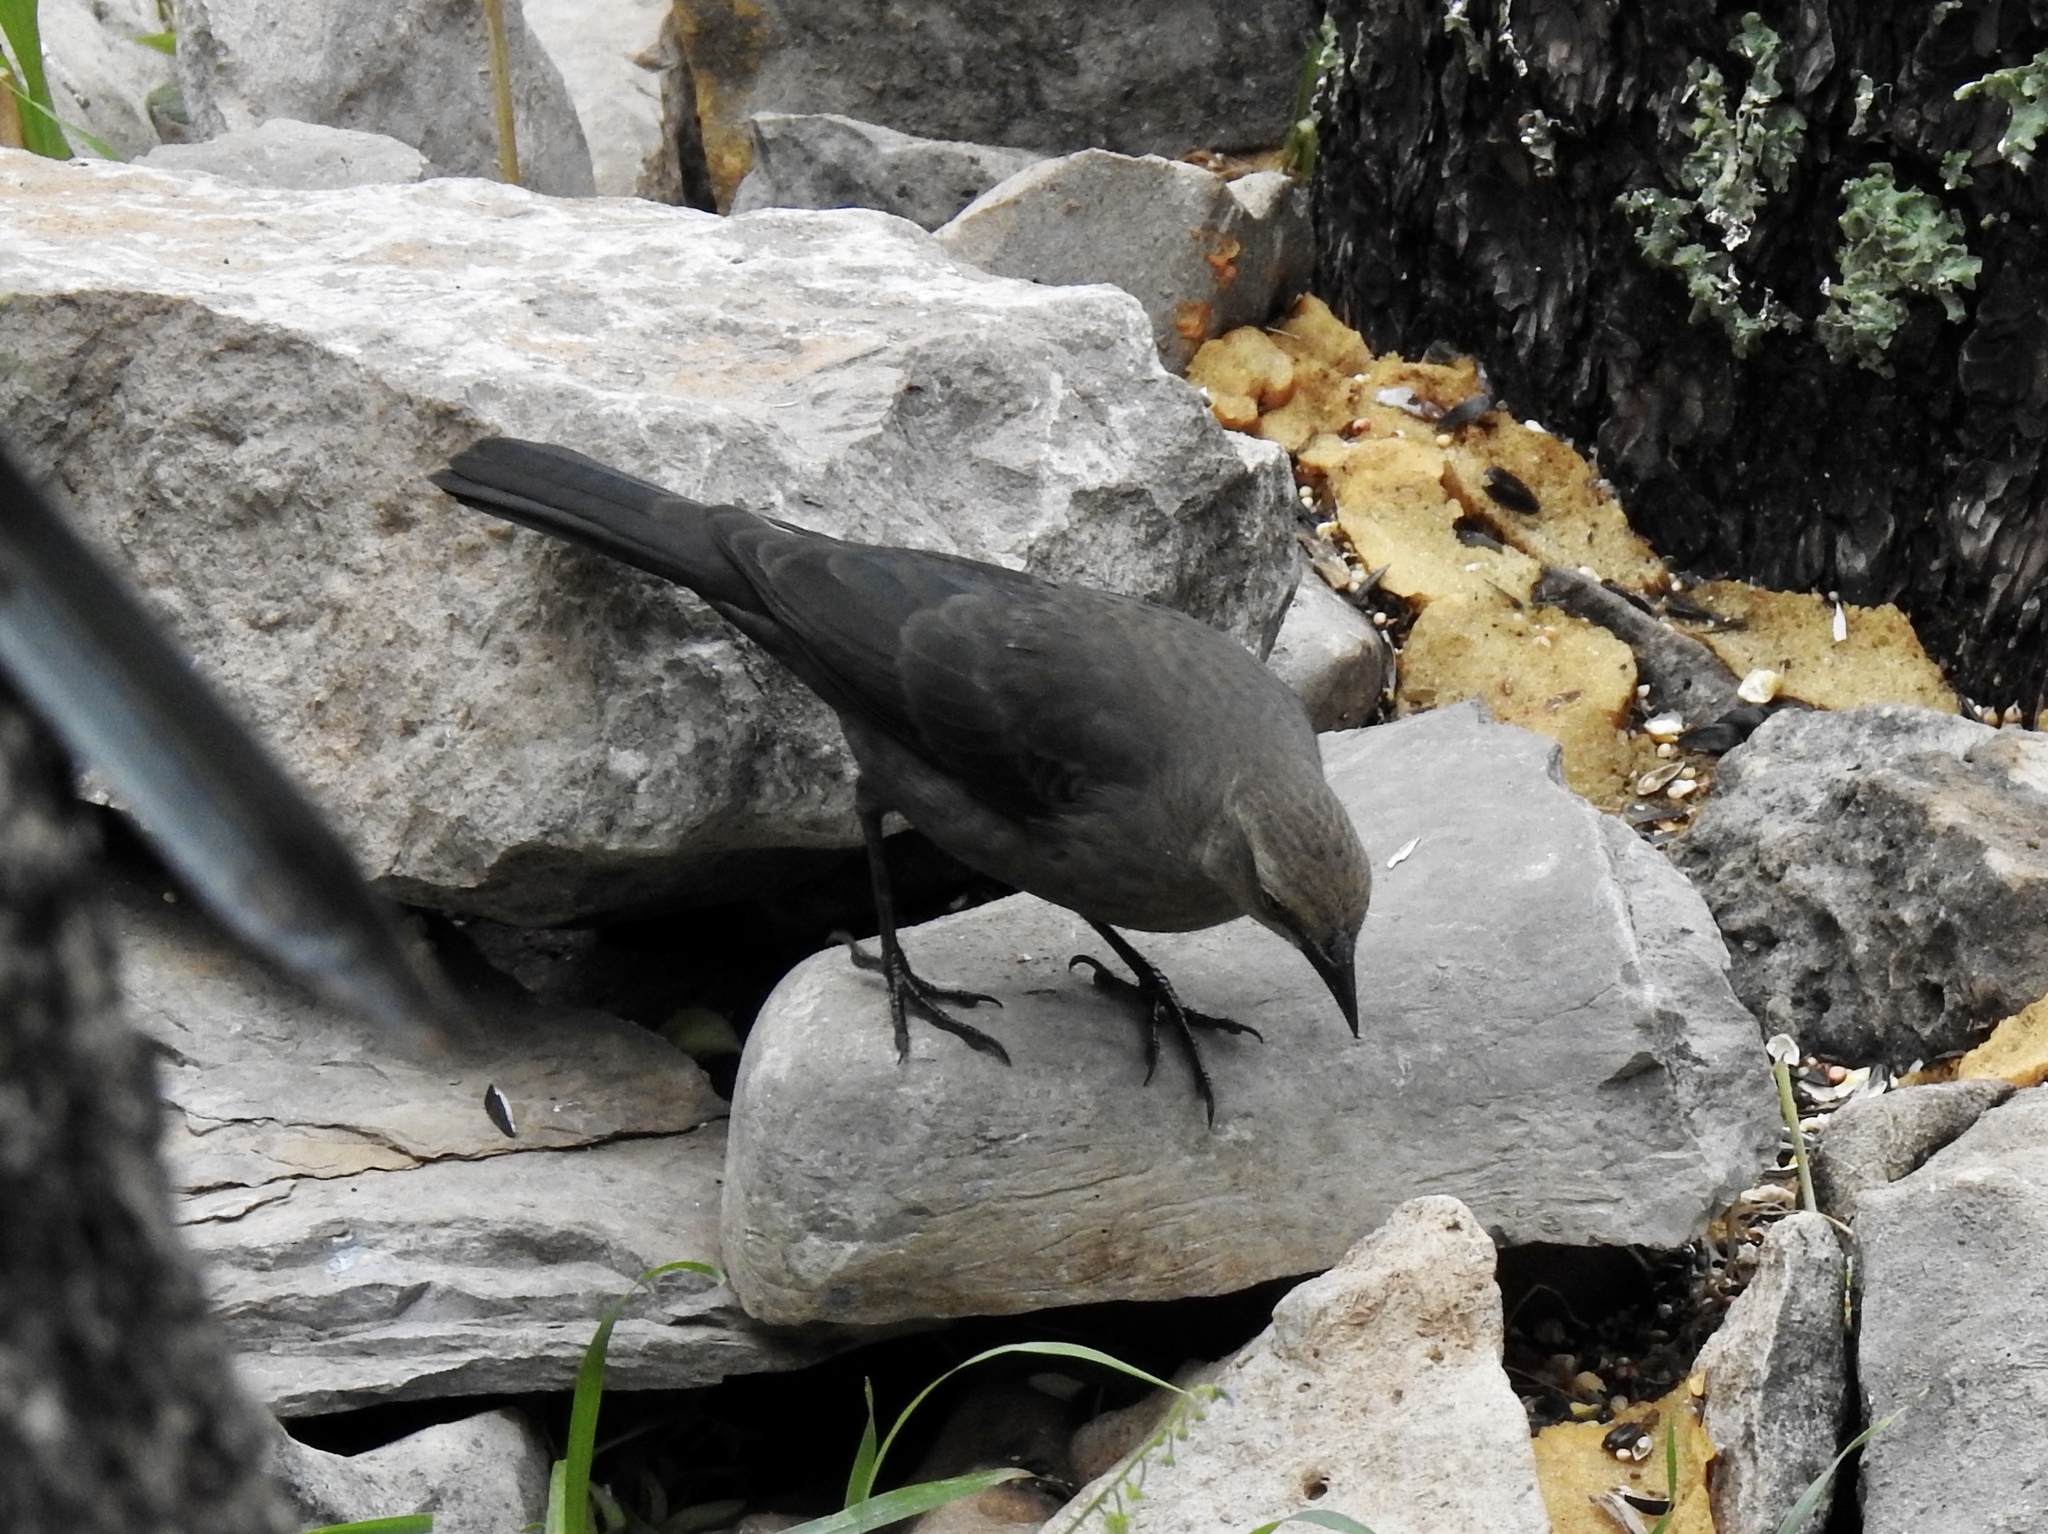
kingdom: Animalia
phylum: Chordata
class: Aves
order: Passeriformes
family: Icteridae
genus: Euphagus
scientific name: Euphagus cyanocephalus
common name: Brewer's blackbird
